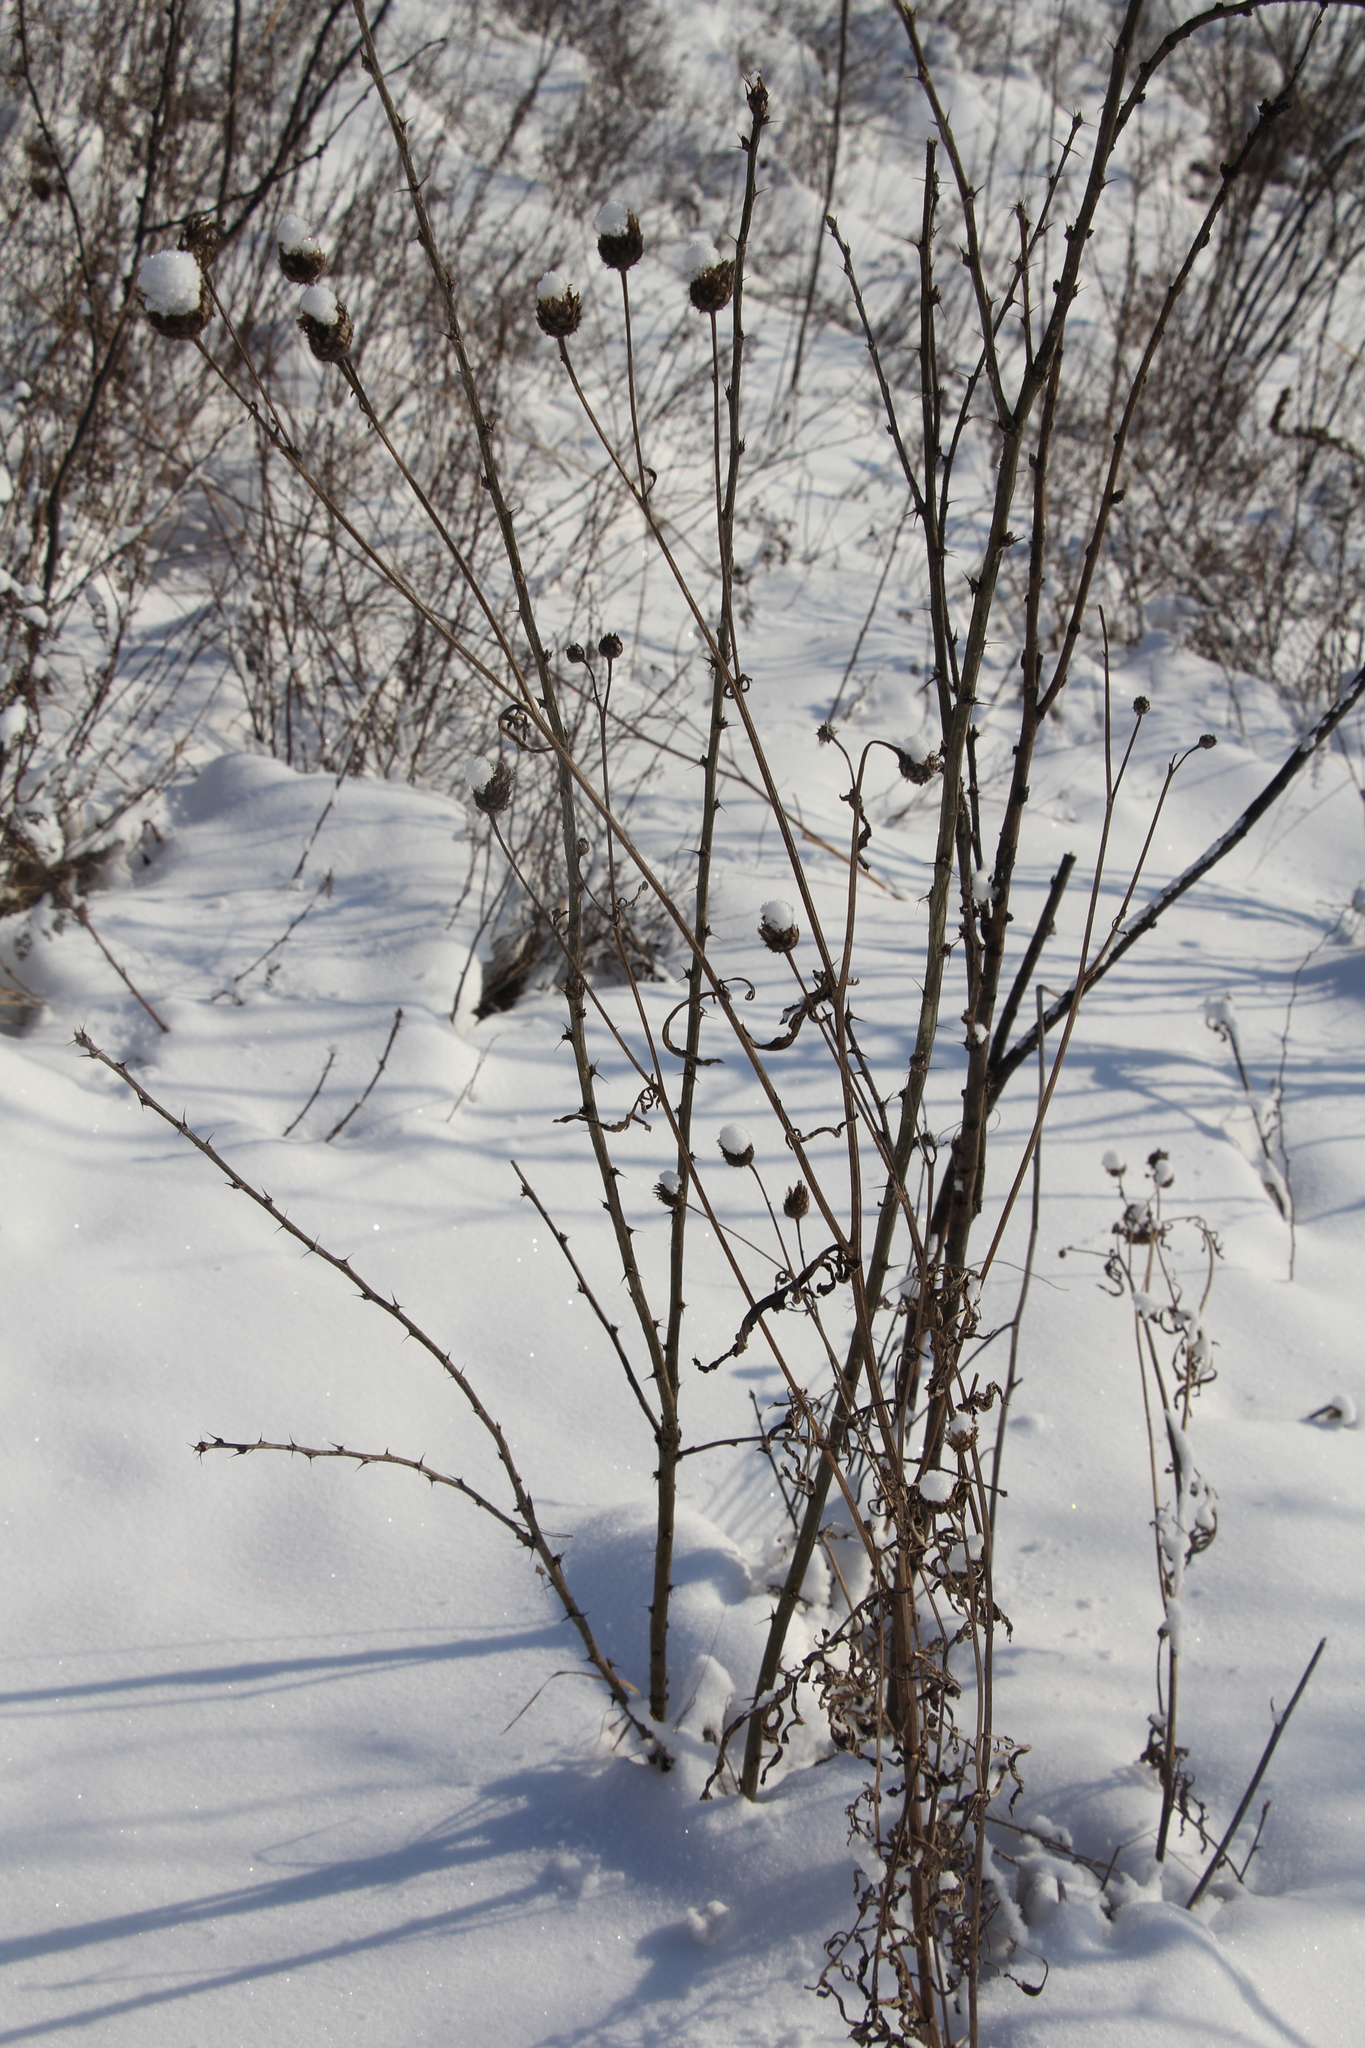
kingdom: Plantae
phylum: Tracheophyta
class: Magnoliopsida
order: Asterales
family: Asteraceae
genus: Centaurea
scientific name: Centaurea scabiosa
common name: Greater knapweed
